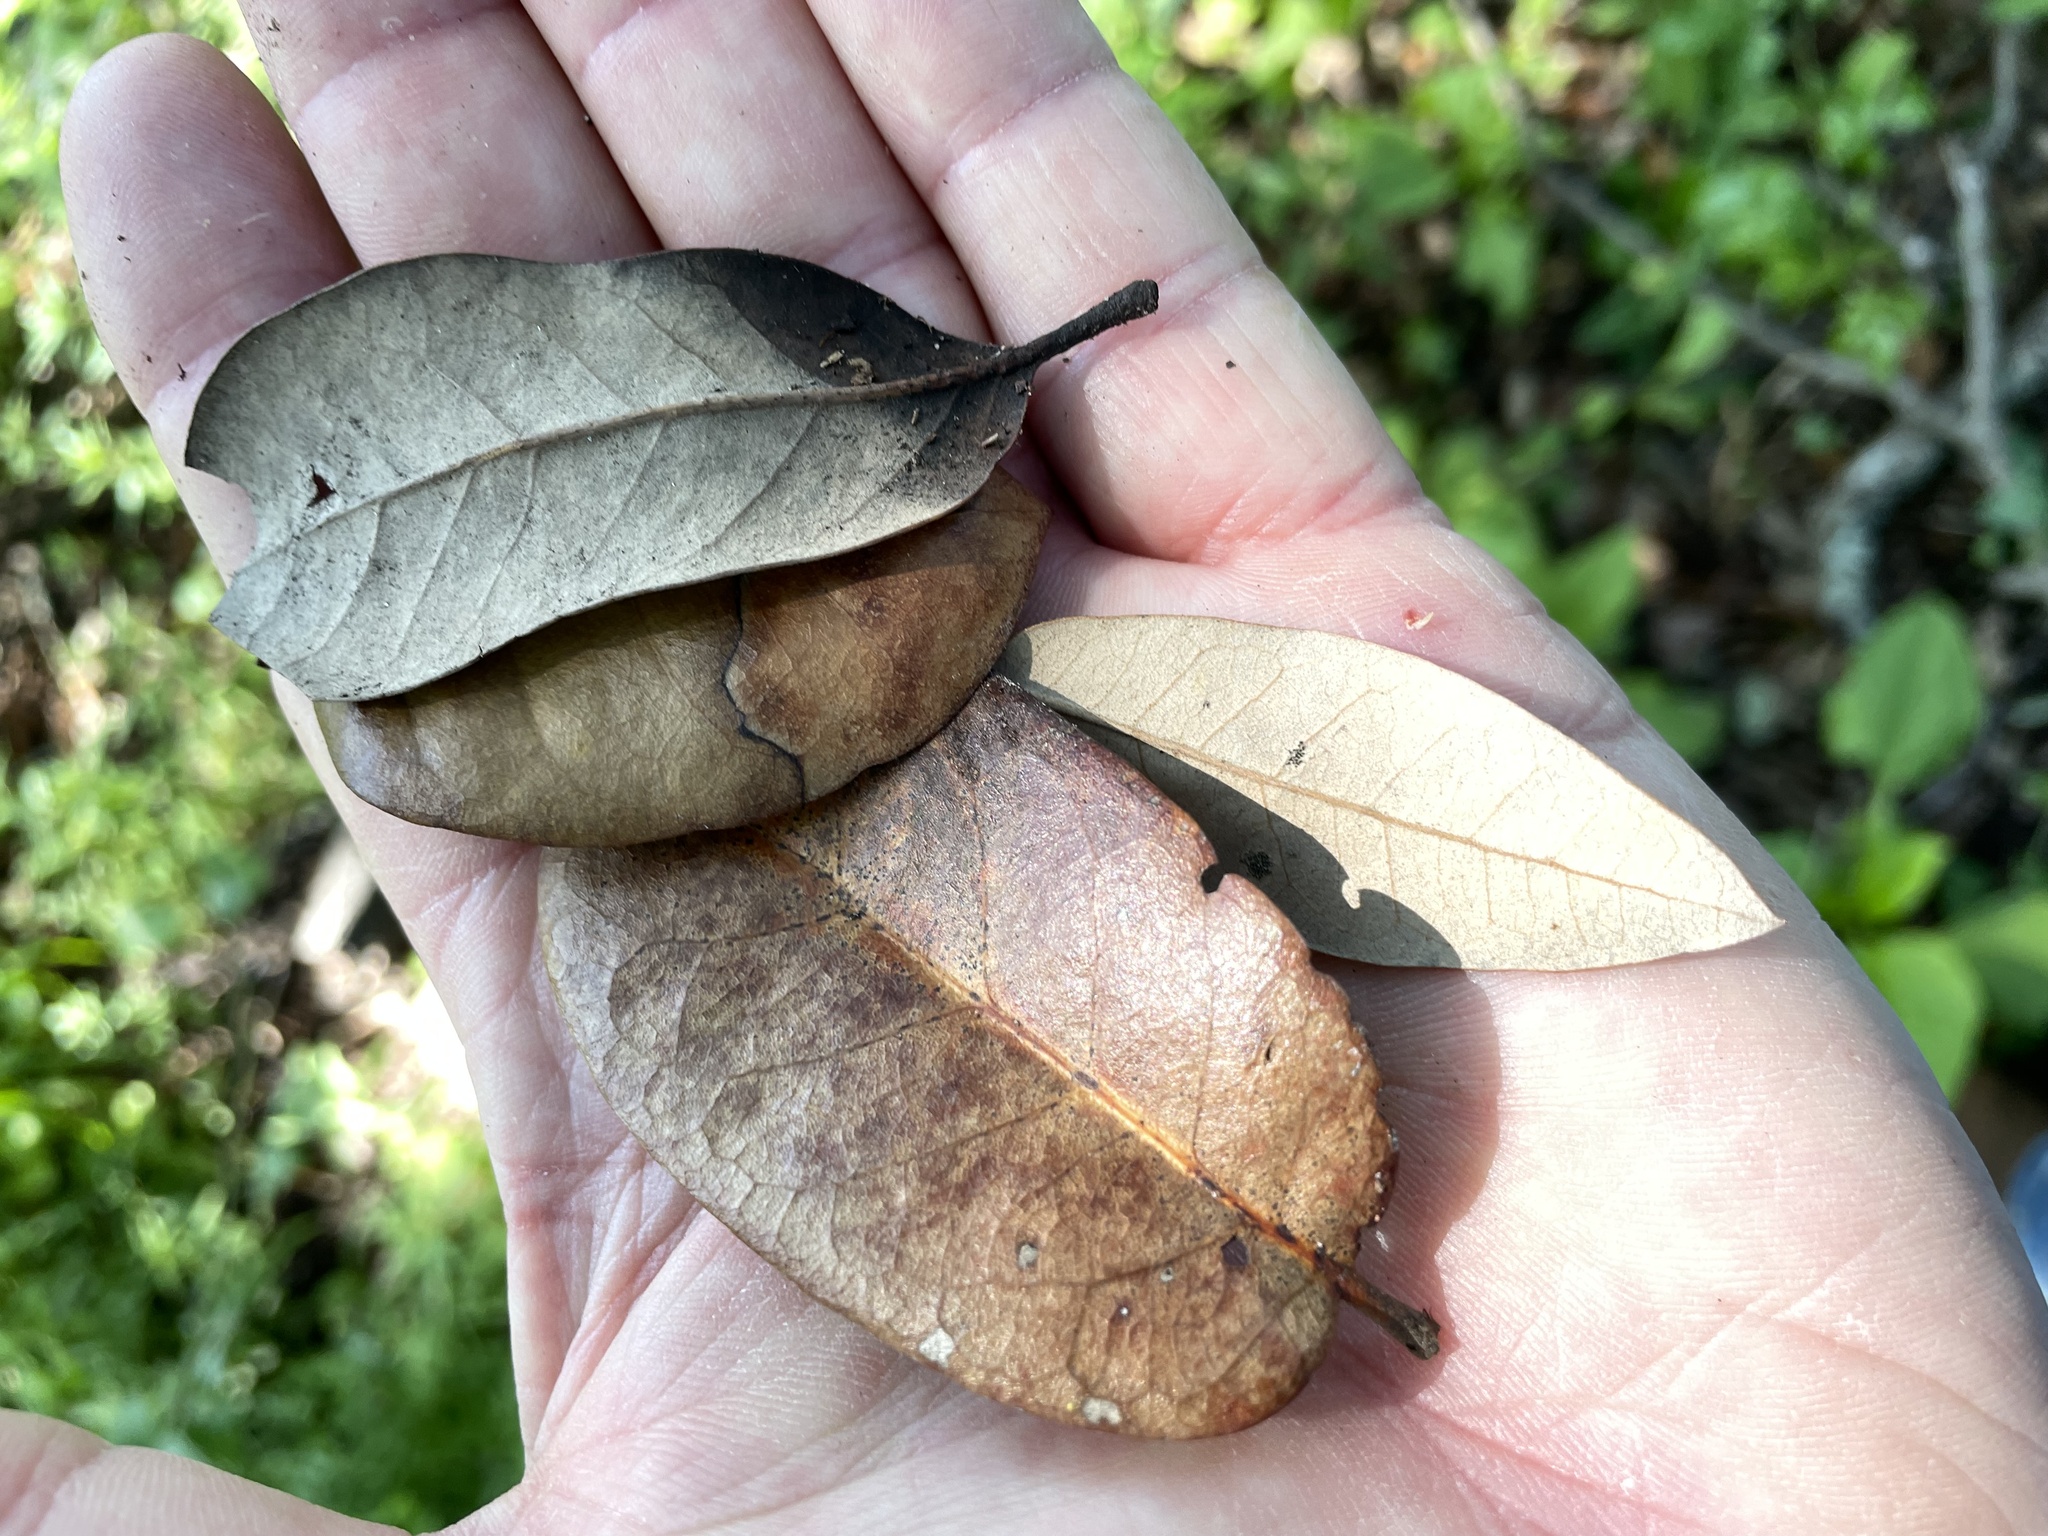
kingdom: Plantae
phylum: Tracheophyta
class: Magnoliopsida
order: Fagales
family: Fagaceae
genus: Quercus
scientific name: Quercus fusiformis
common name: Texas live oak
